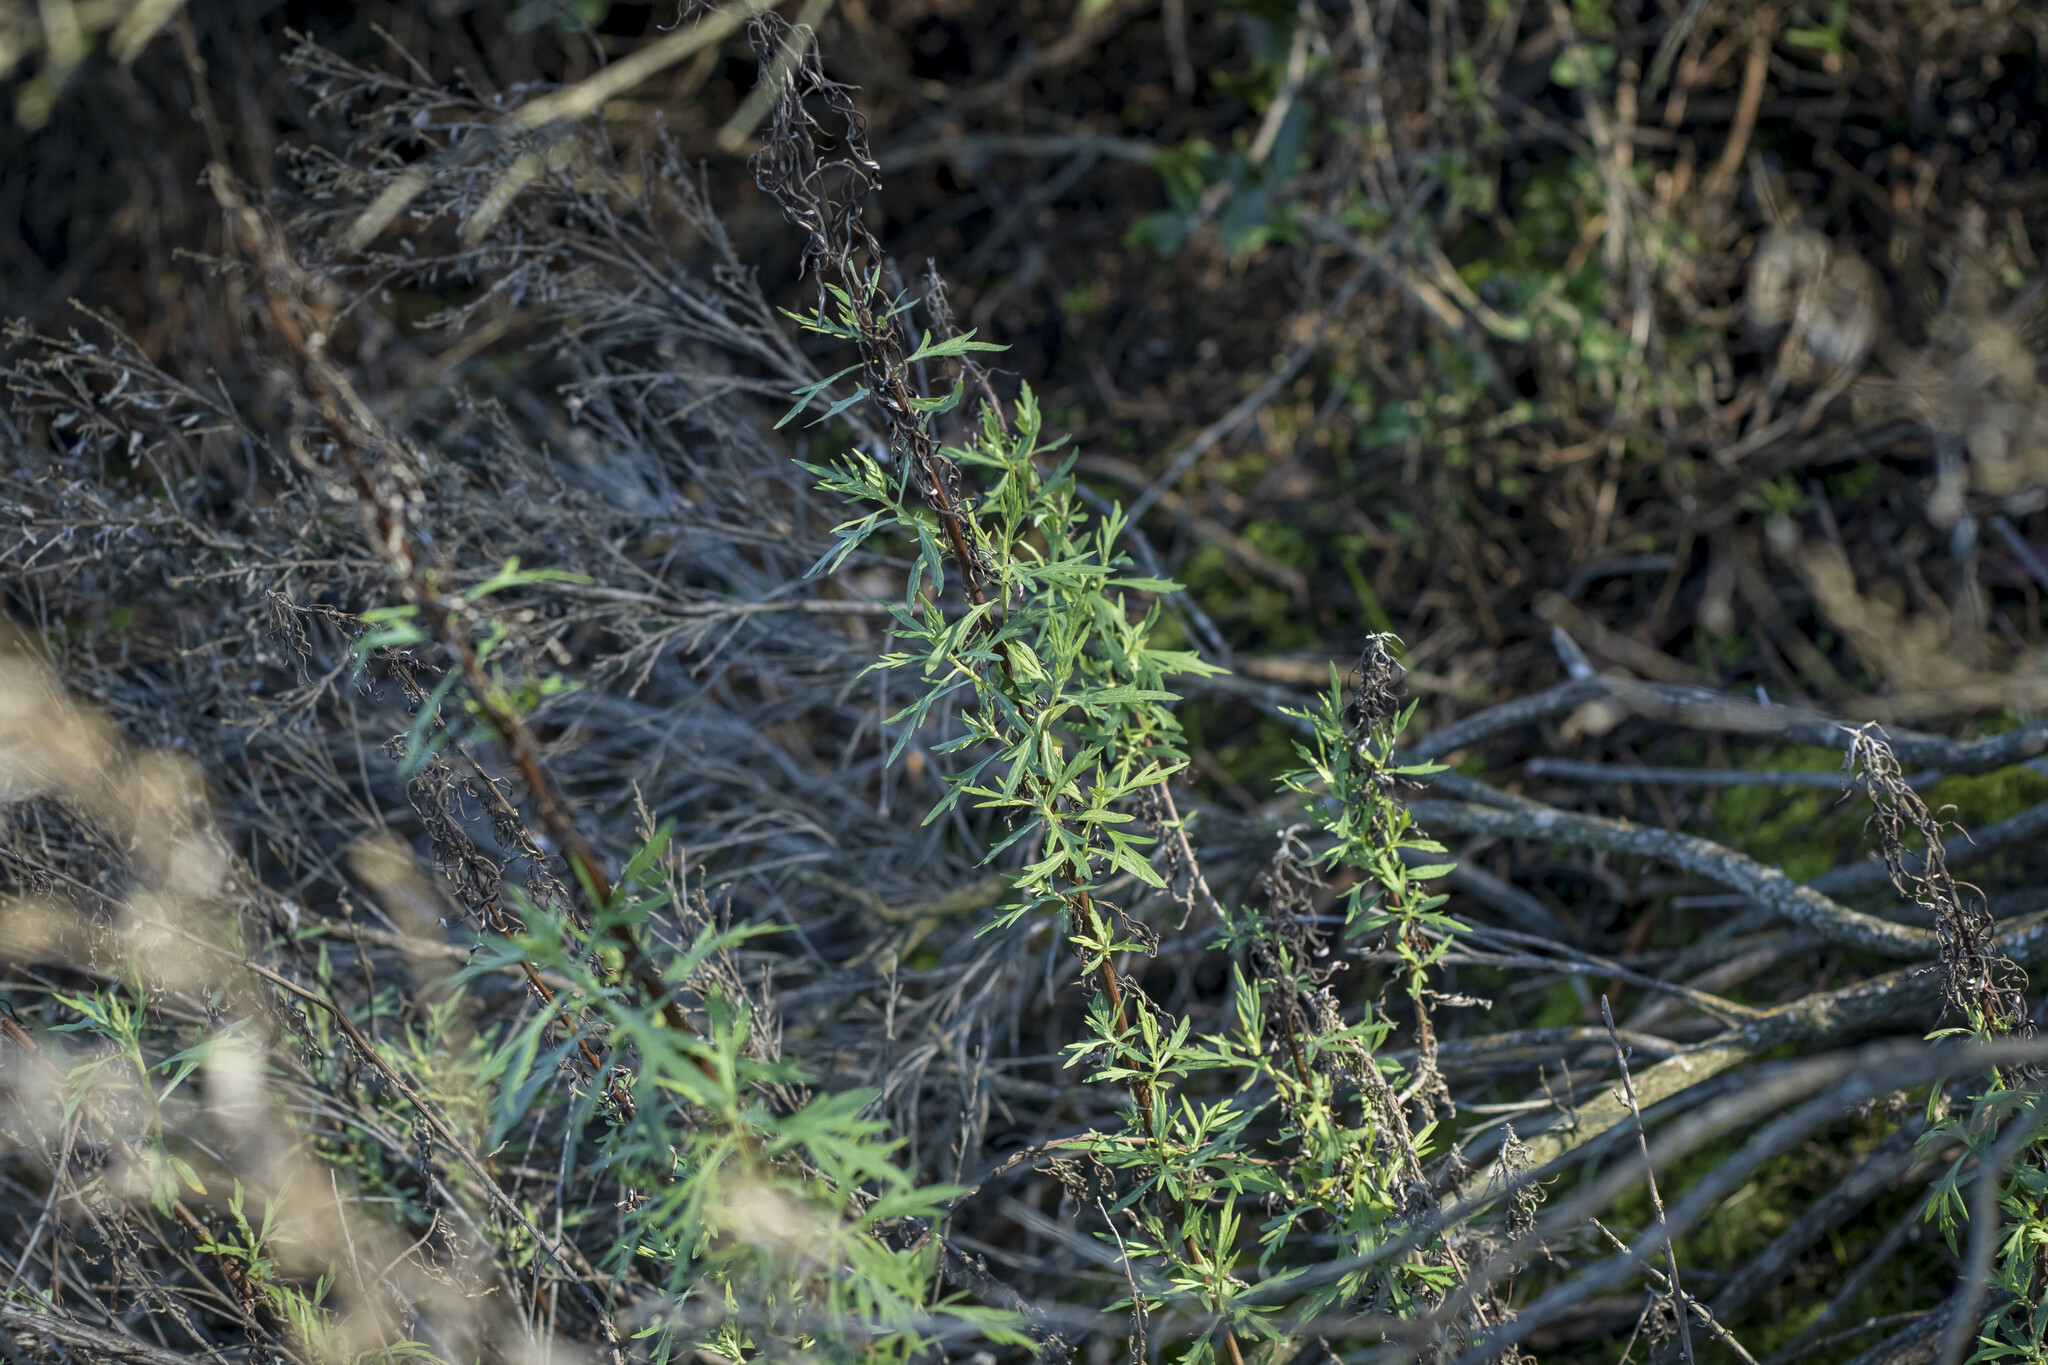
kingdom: Plantae
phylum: Tracheophyta
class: Magnoliopsida
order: Asterales
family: Asteraceae
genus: Artemisia
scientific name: Artemisia palmeri
